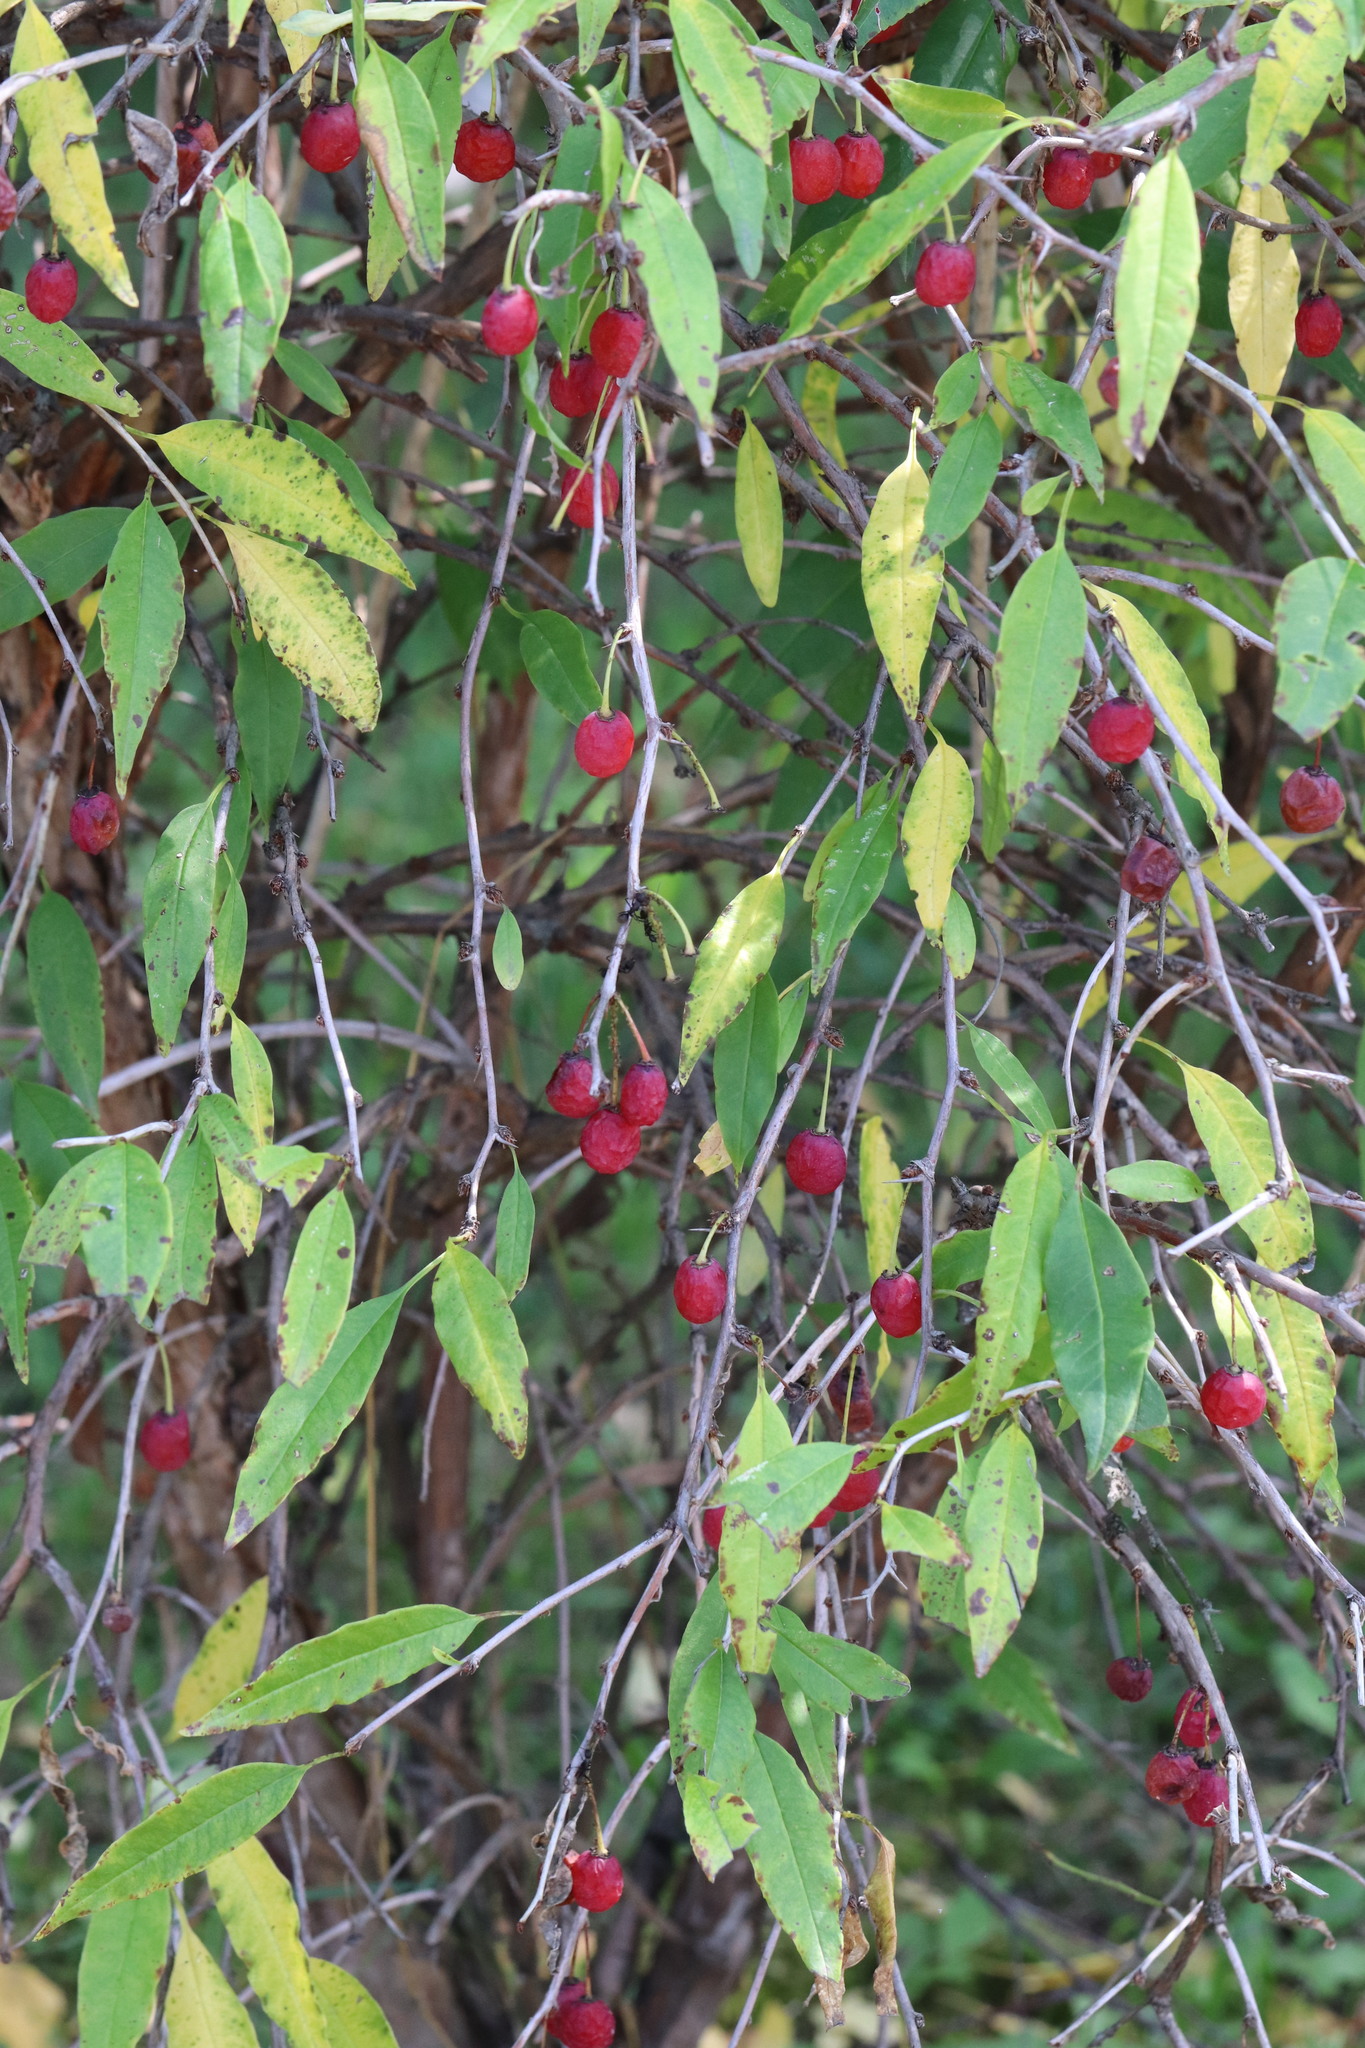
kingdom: Plantae
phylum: Tracheophyta
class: Magnoliopsida
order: Rosales
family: Rosaceae
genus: Prinsepia
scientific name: Prinsepia sinensis
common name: Cherry prinsepia
